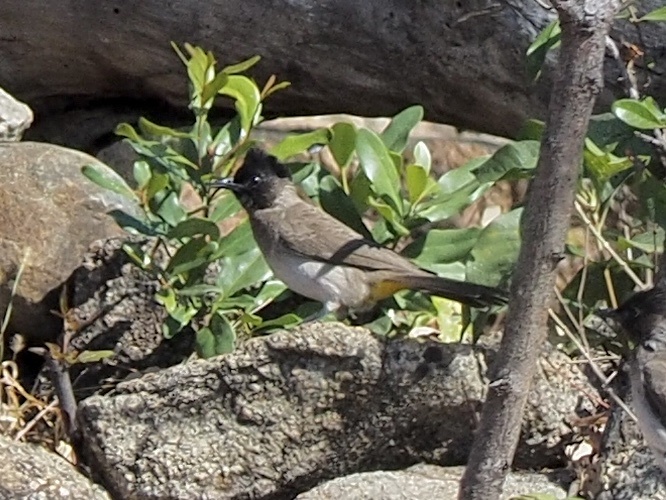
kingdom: Animalia
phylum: Chordata
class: Aves
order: Passeriformes
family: Pycnonotidae
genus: Pycnonotus
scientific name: Pycnonotus barbatus
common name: Common bulbul
